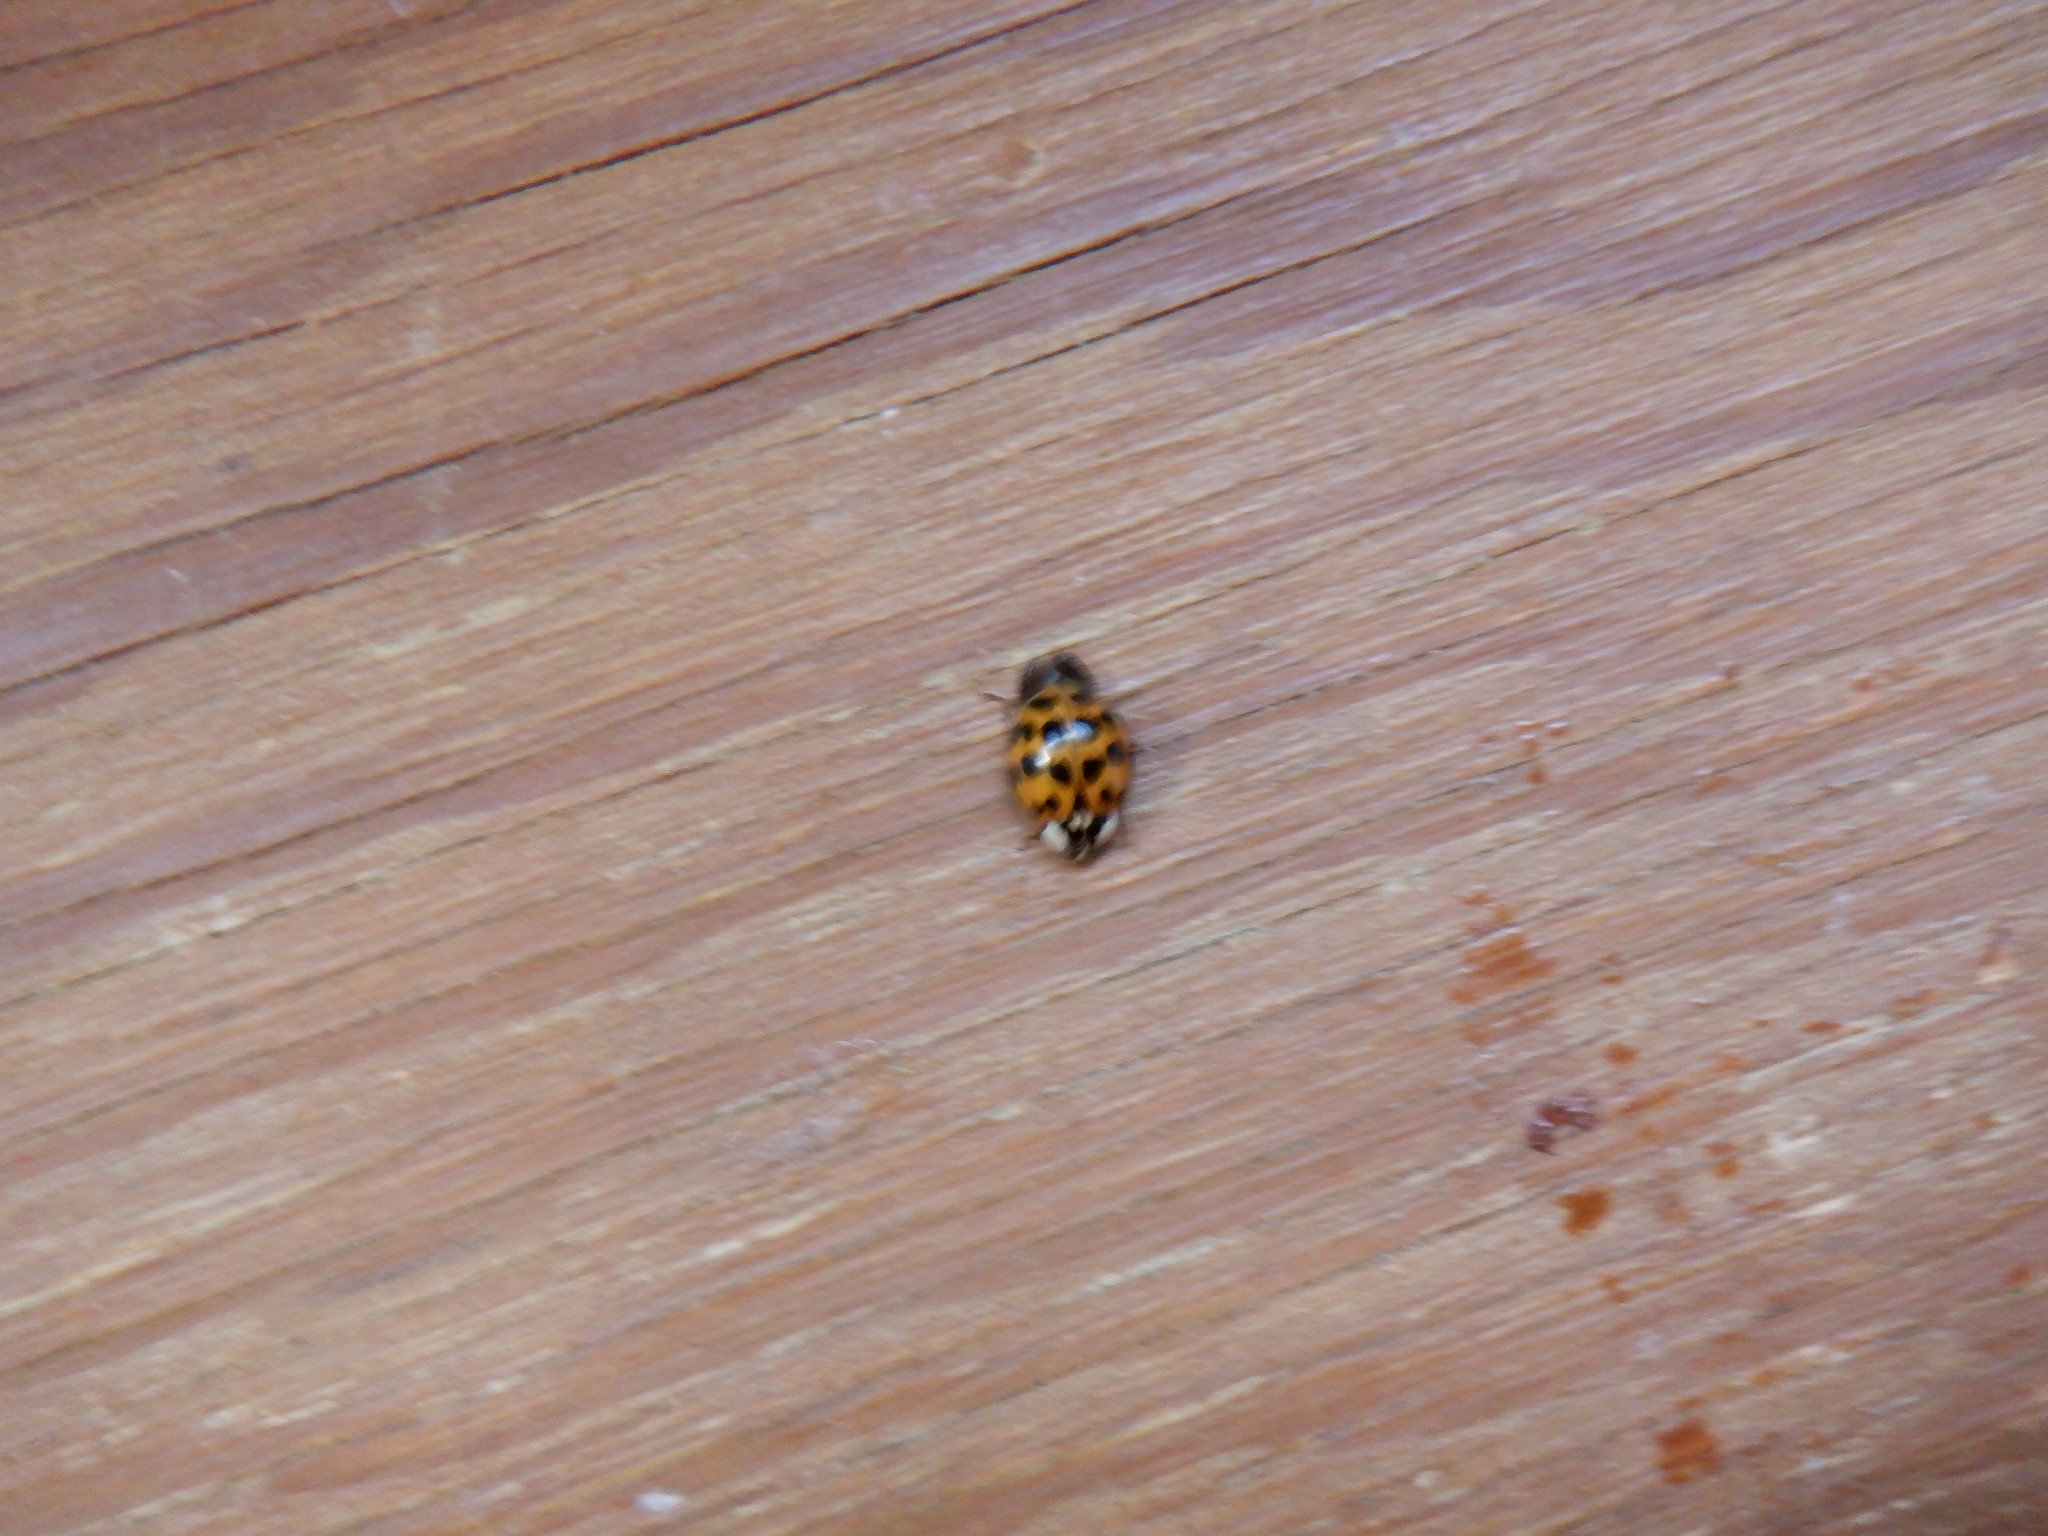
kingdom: Animalia
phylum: Arthropoda
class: Insecta
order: Coleoptera
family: Coccinellidae
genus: Harmonia
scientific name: Harmonia axyridis
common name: Harlequin ladybird
